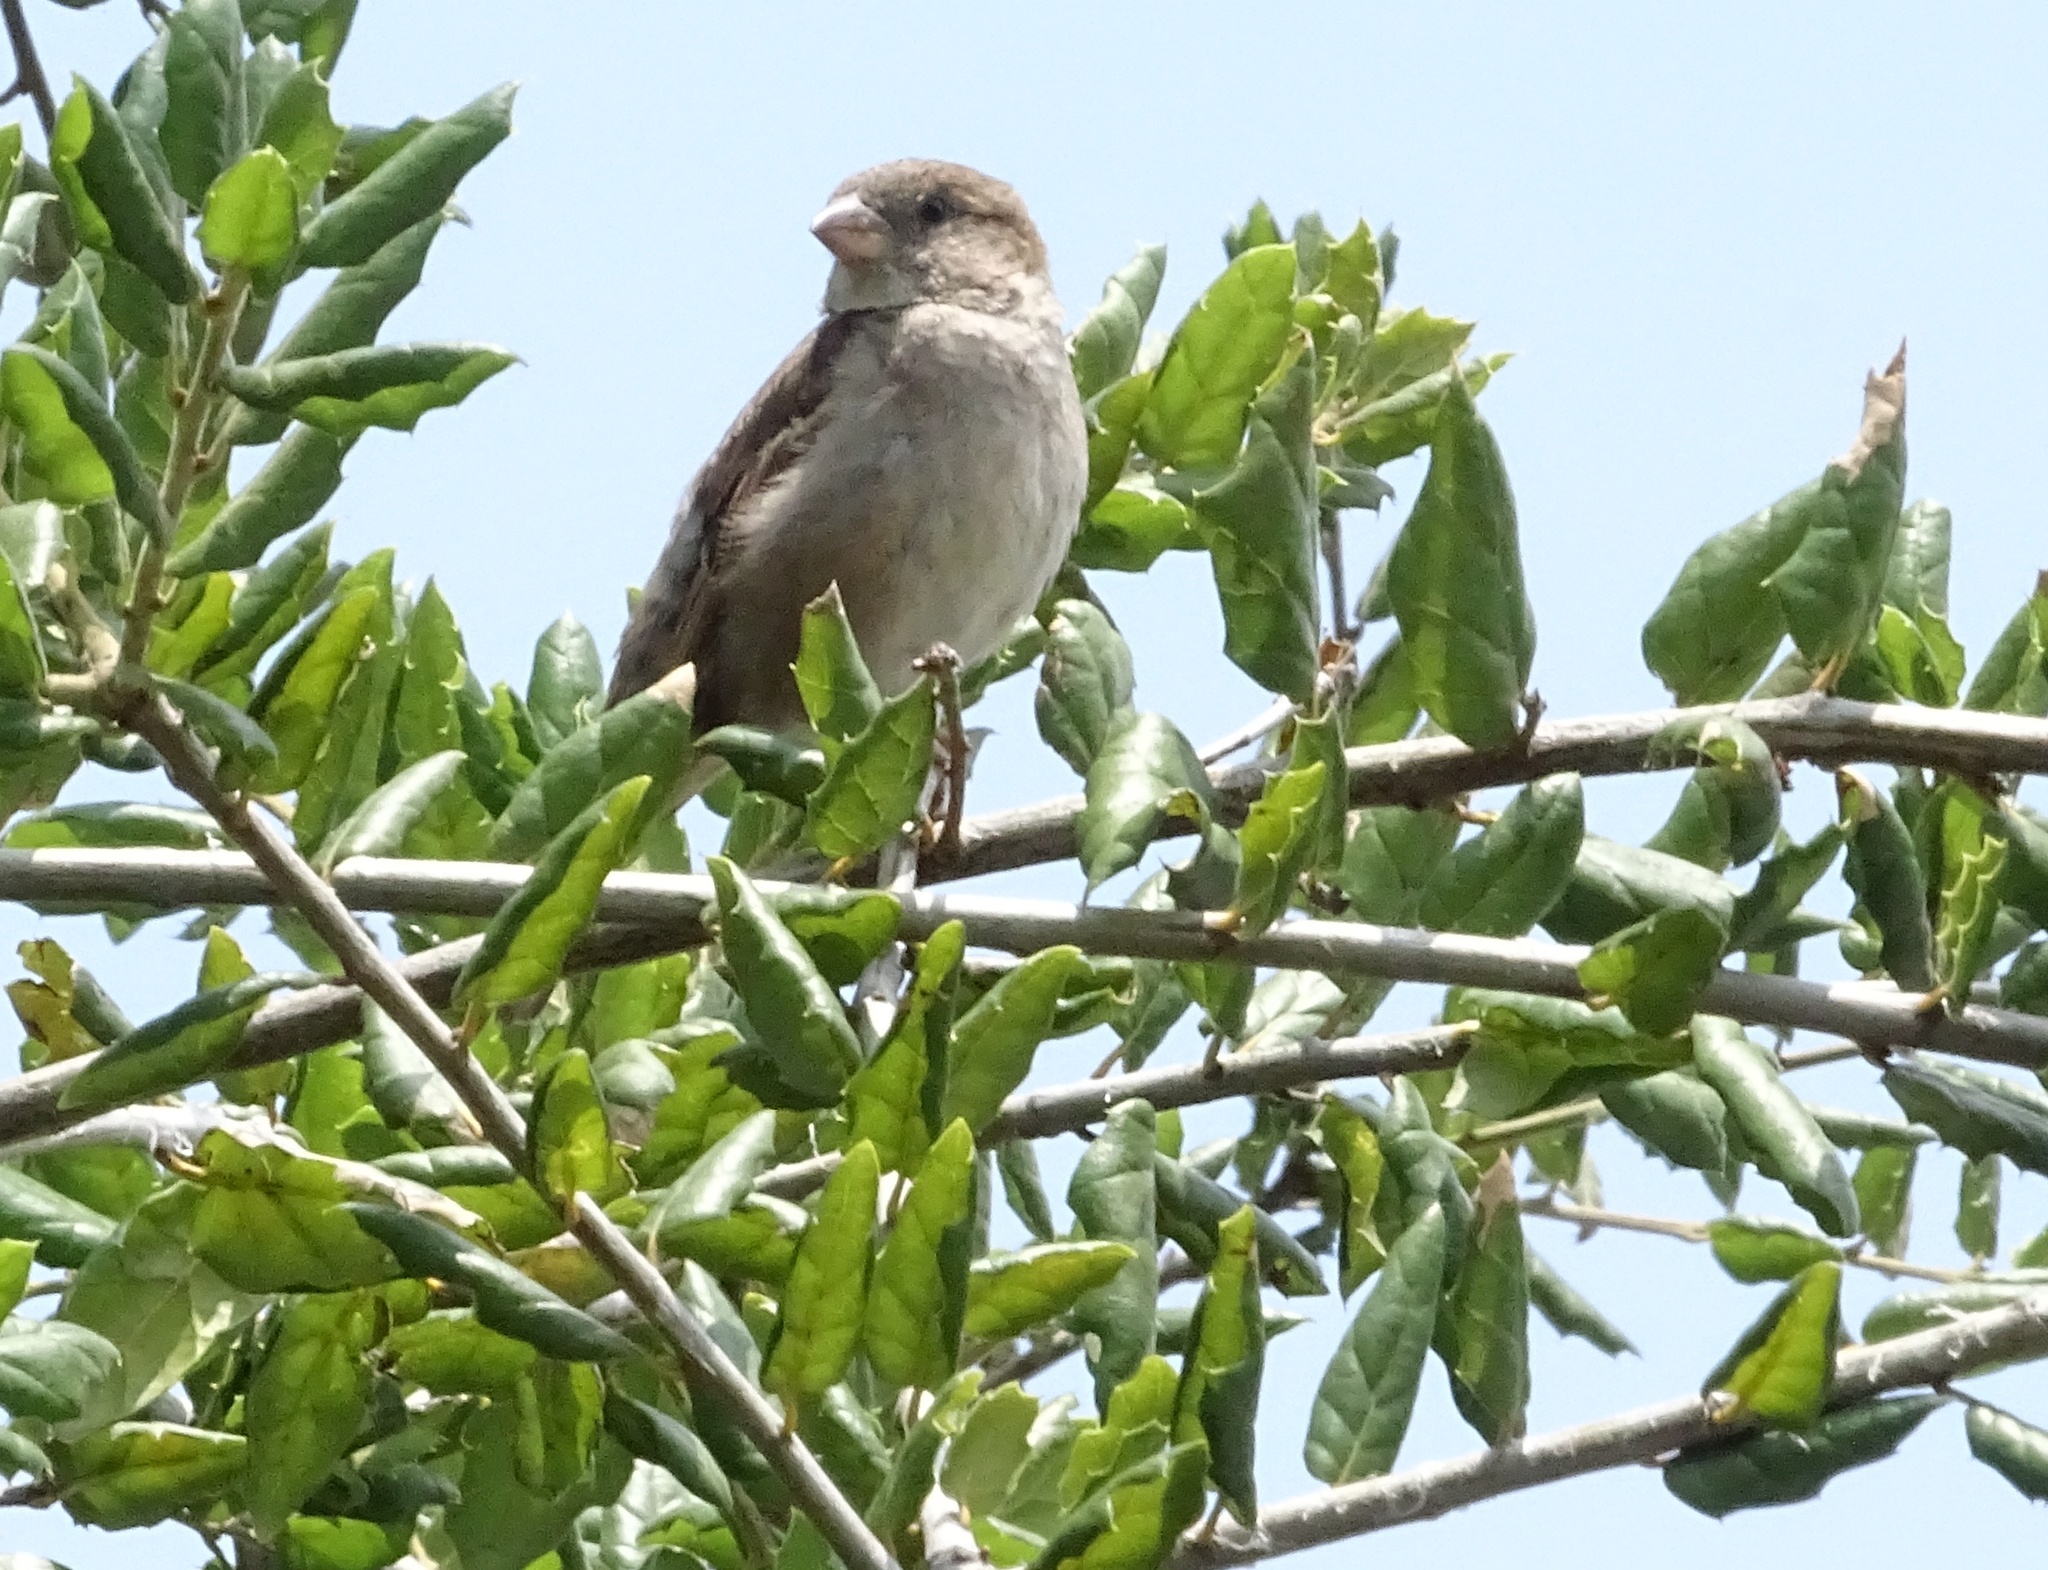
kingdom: Animalia
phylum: Chordata
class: Aves
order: Passeriformes
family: Passeridae
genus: Passer
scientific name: Passer domesticus
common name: House sparrow
